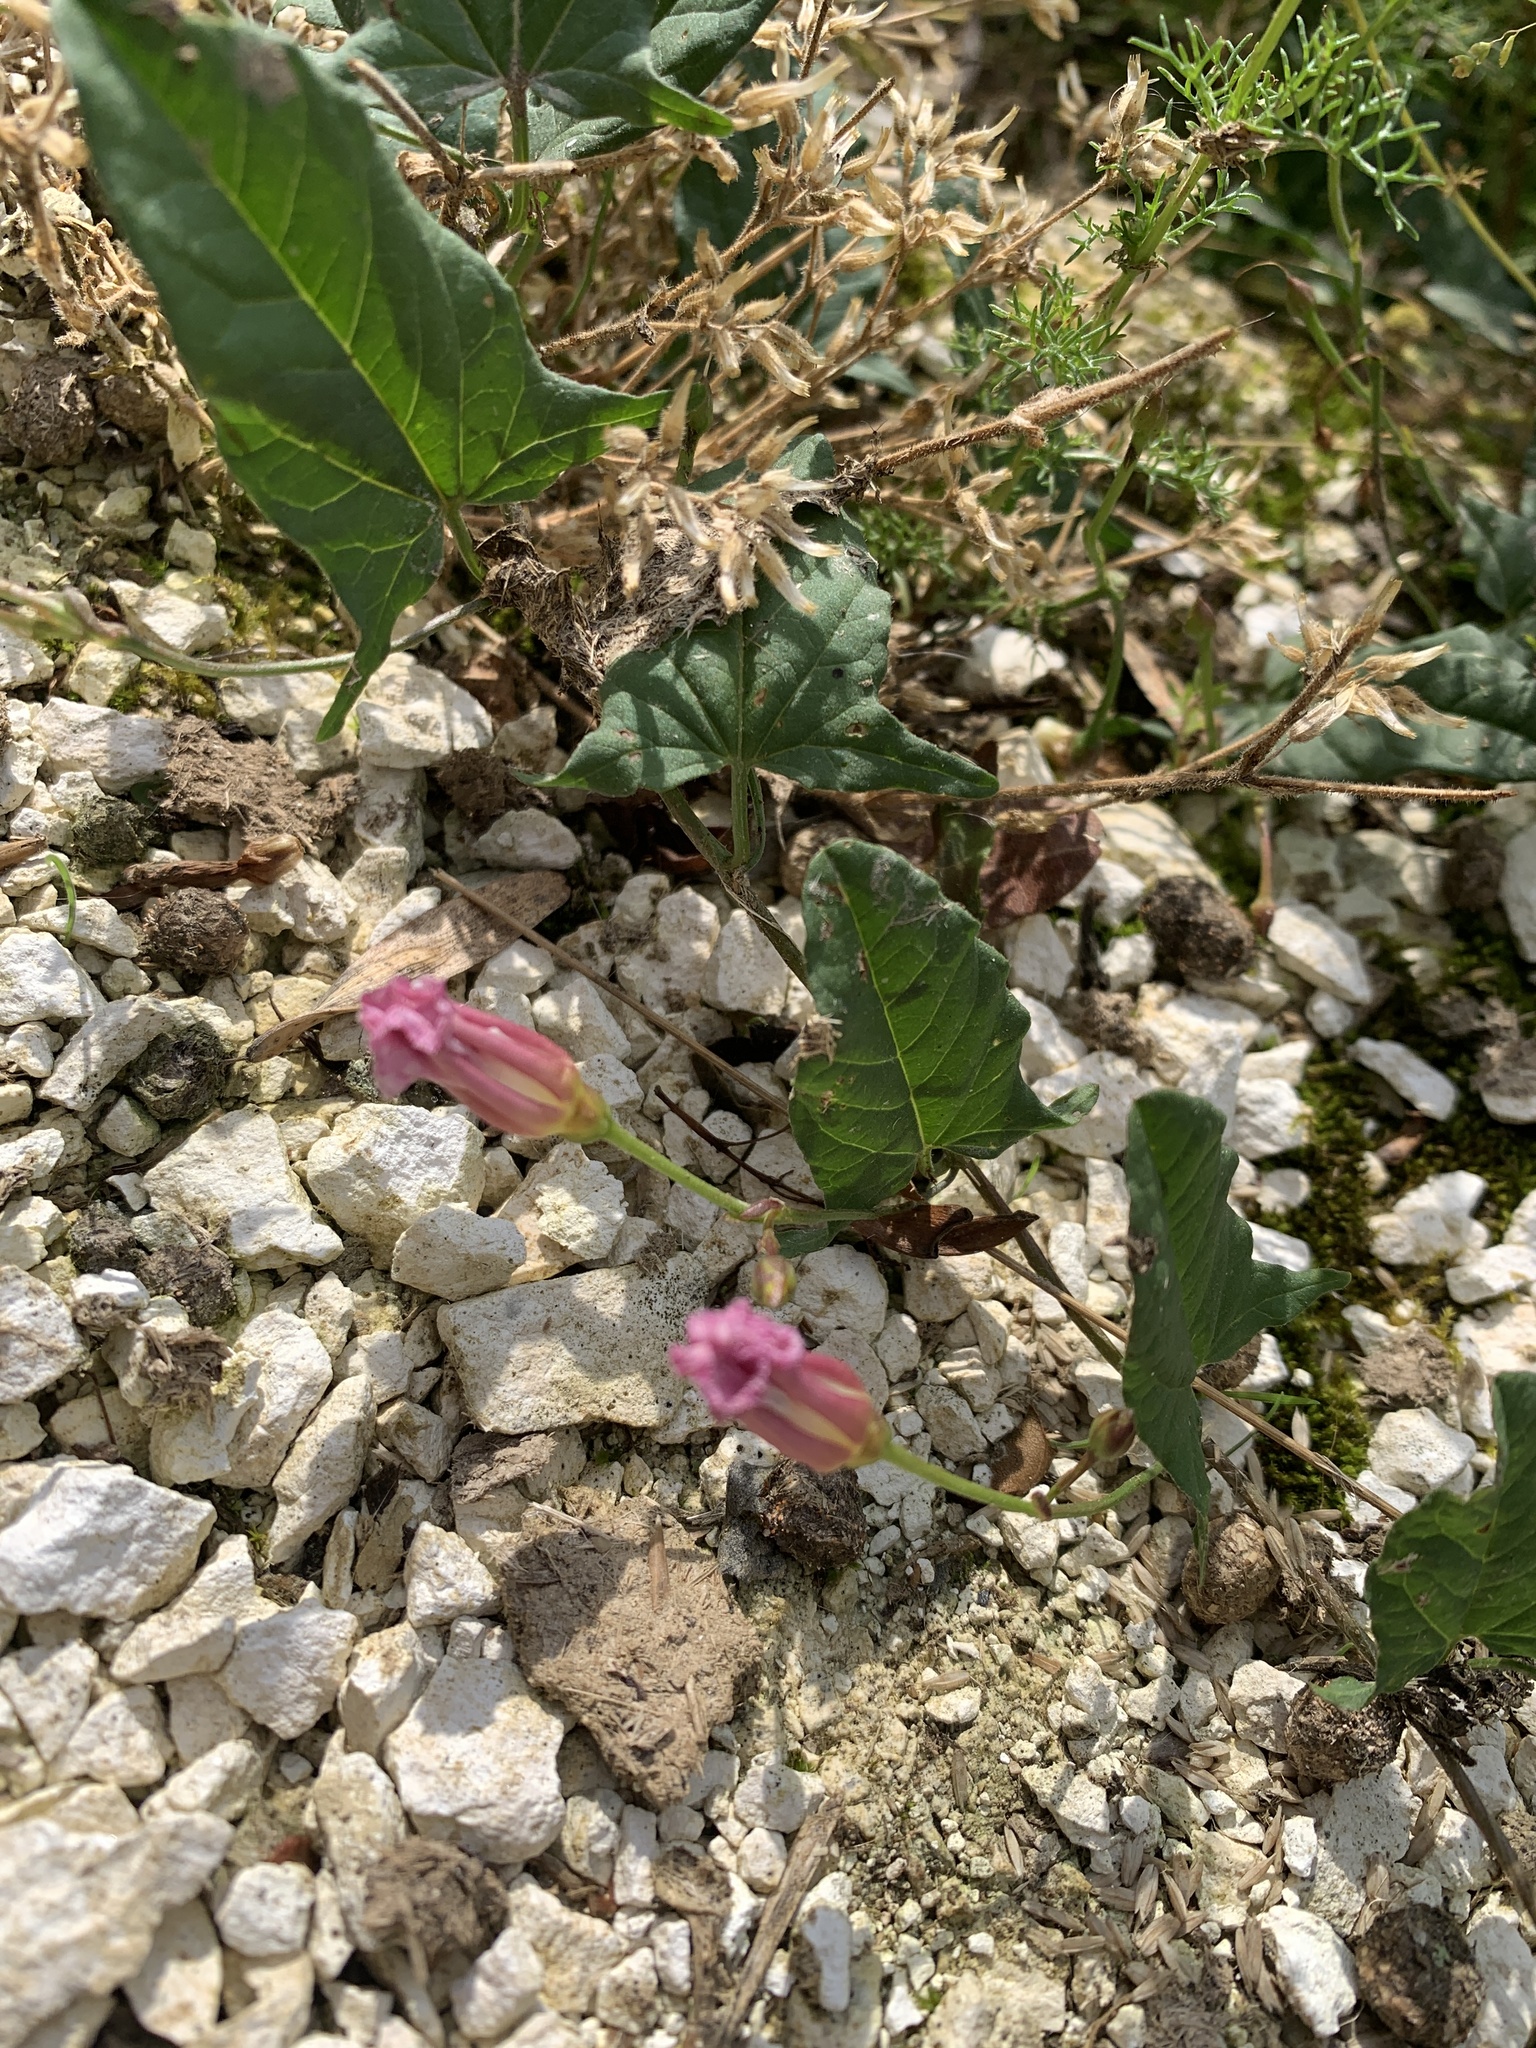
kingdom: Plantae
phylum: Tracheophyta
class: Magnoliopsida
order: Solanales
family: Convolvulaceae
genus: Convolvulus
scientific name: Convolvulus arvensis
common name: Field bindweed
